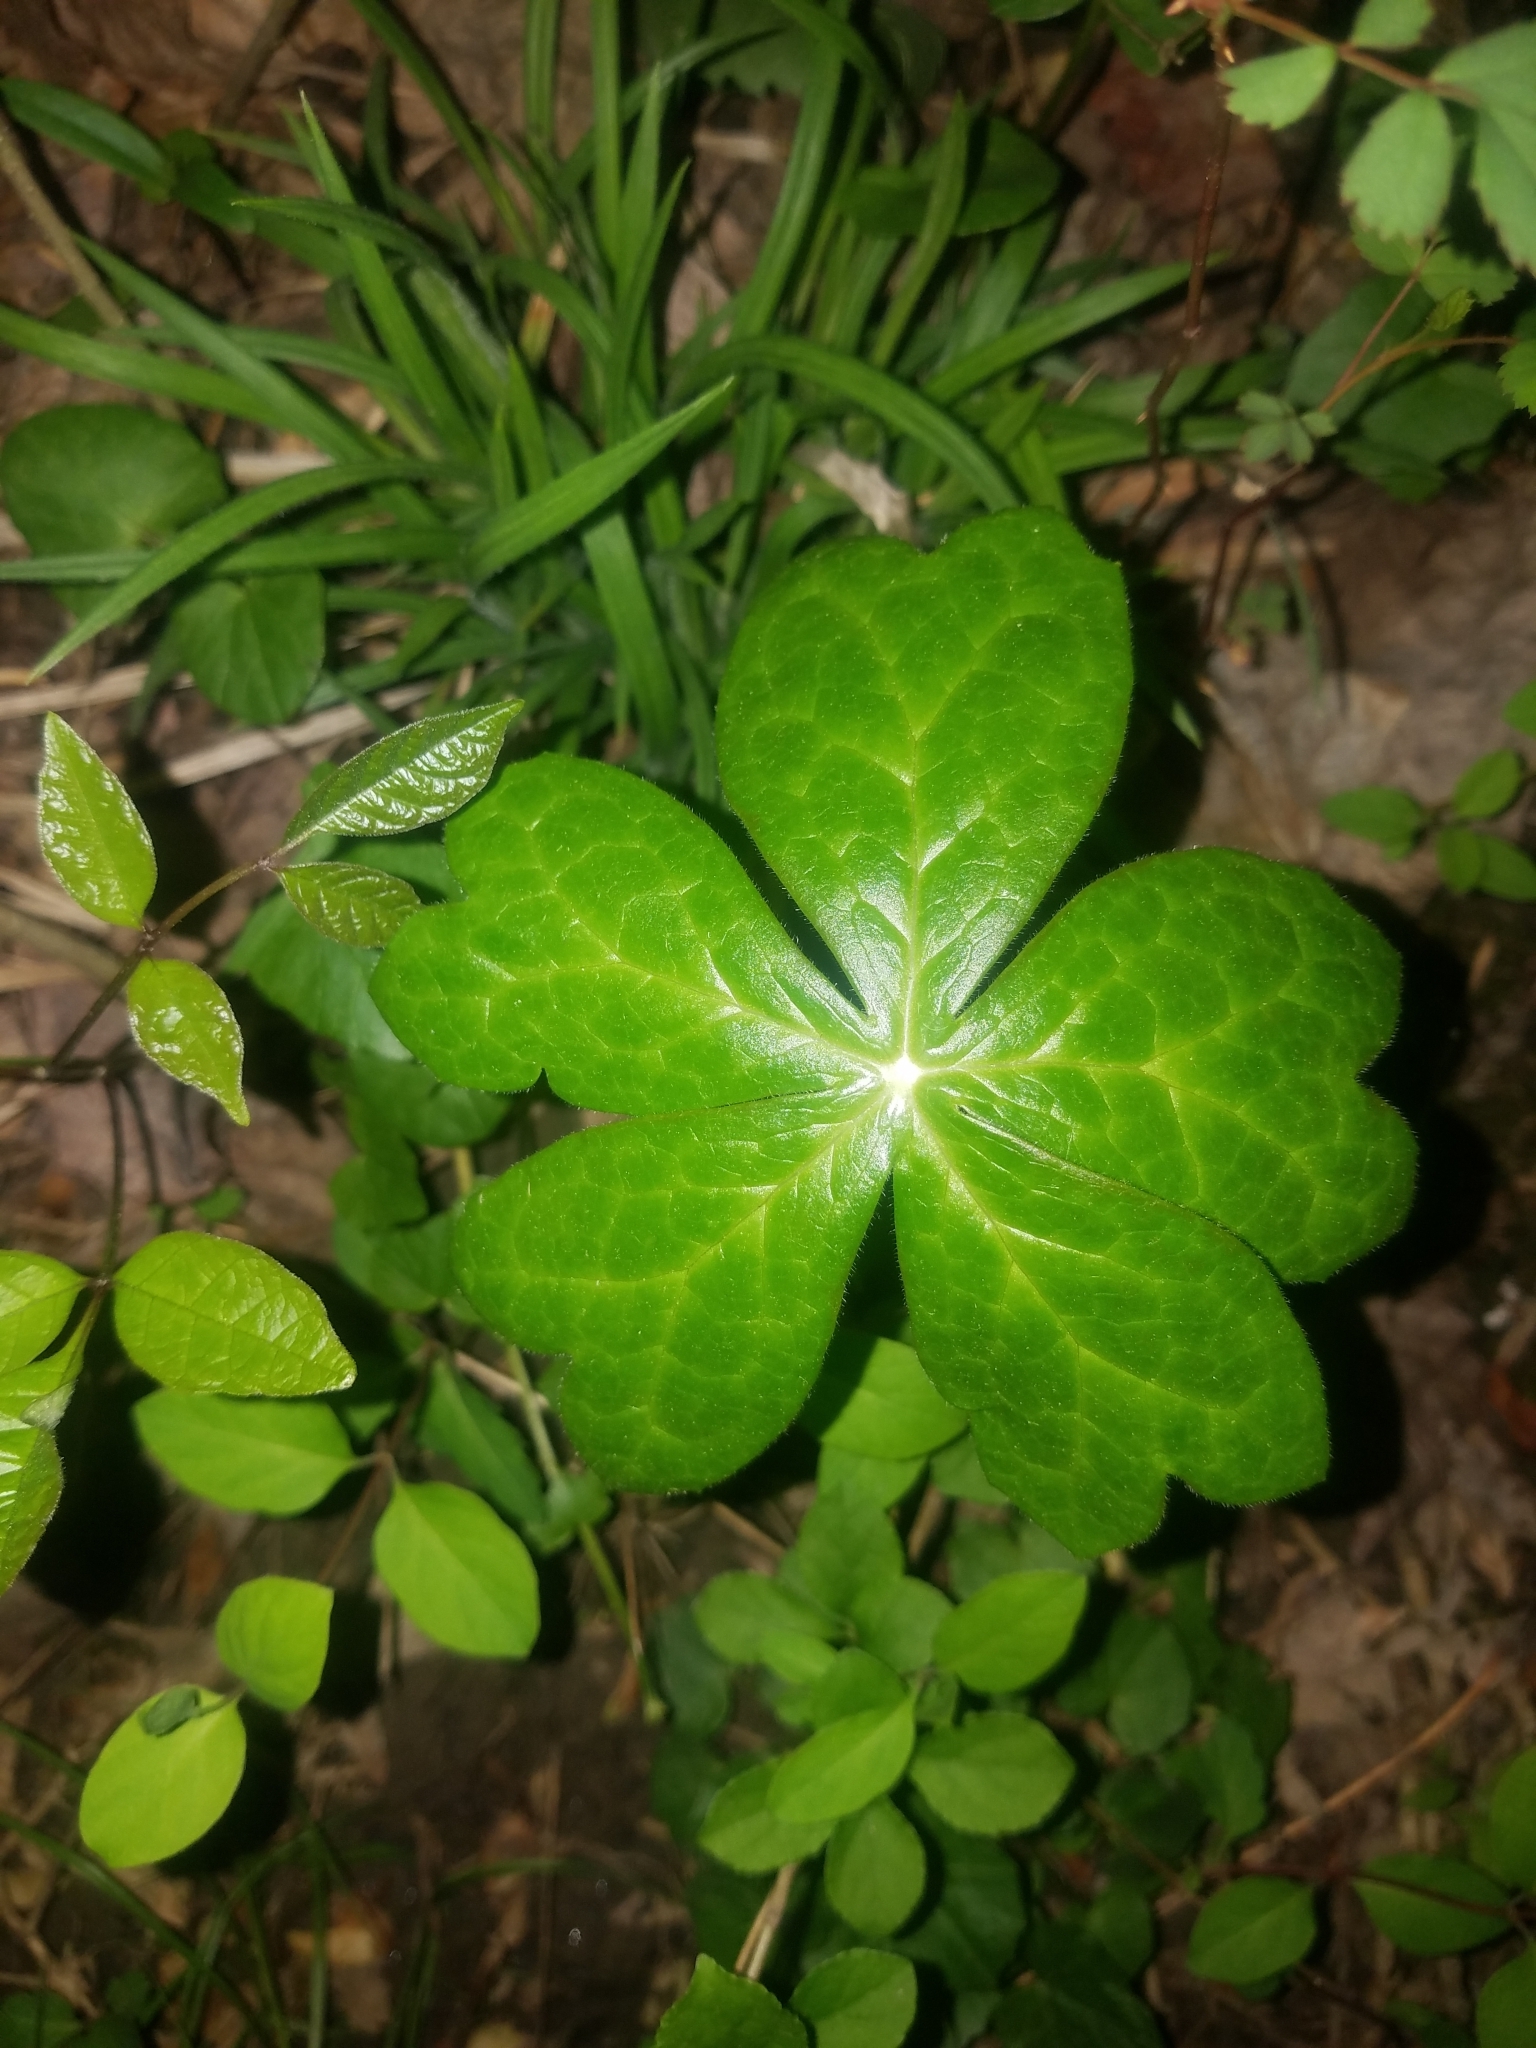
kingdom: Plantae
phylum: Tracheophyta
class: Magnoliopsida
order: Ranunculales
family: Berberidaceae
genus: Podophyllum
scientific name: Podophyllum peltatum
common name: Wild mandrake
